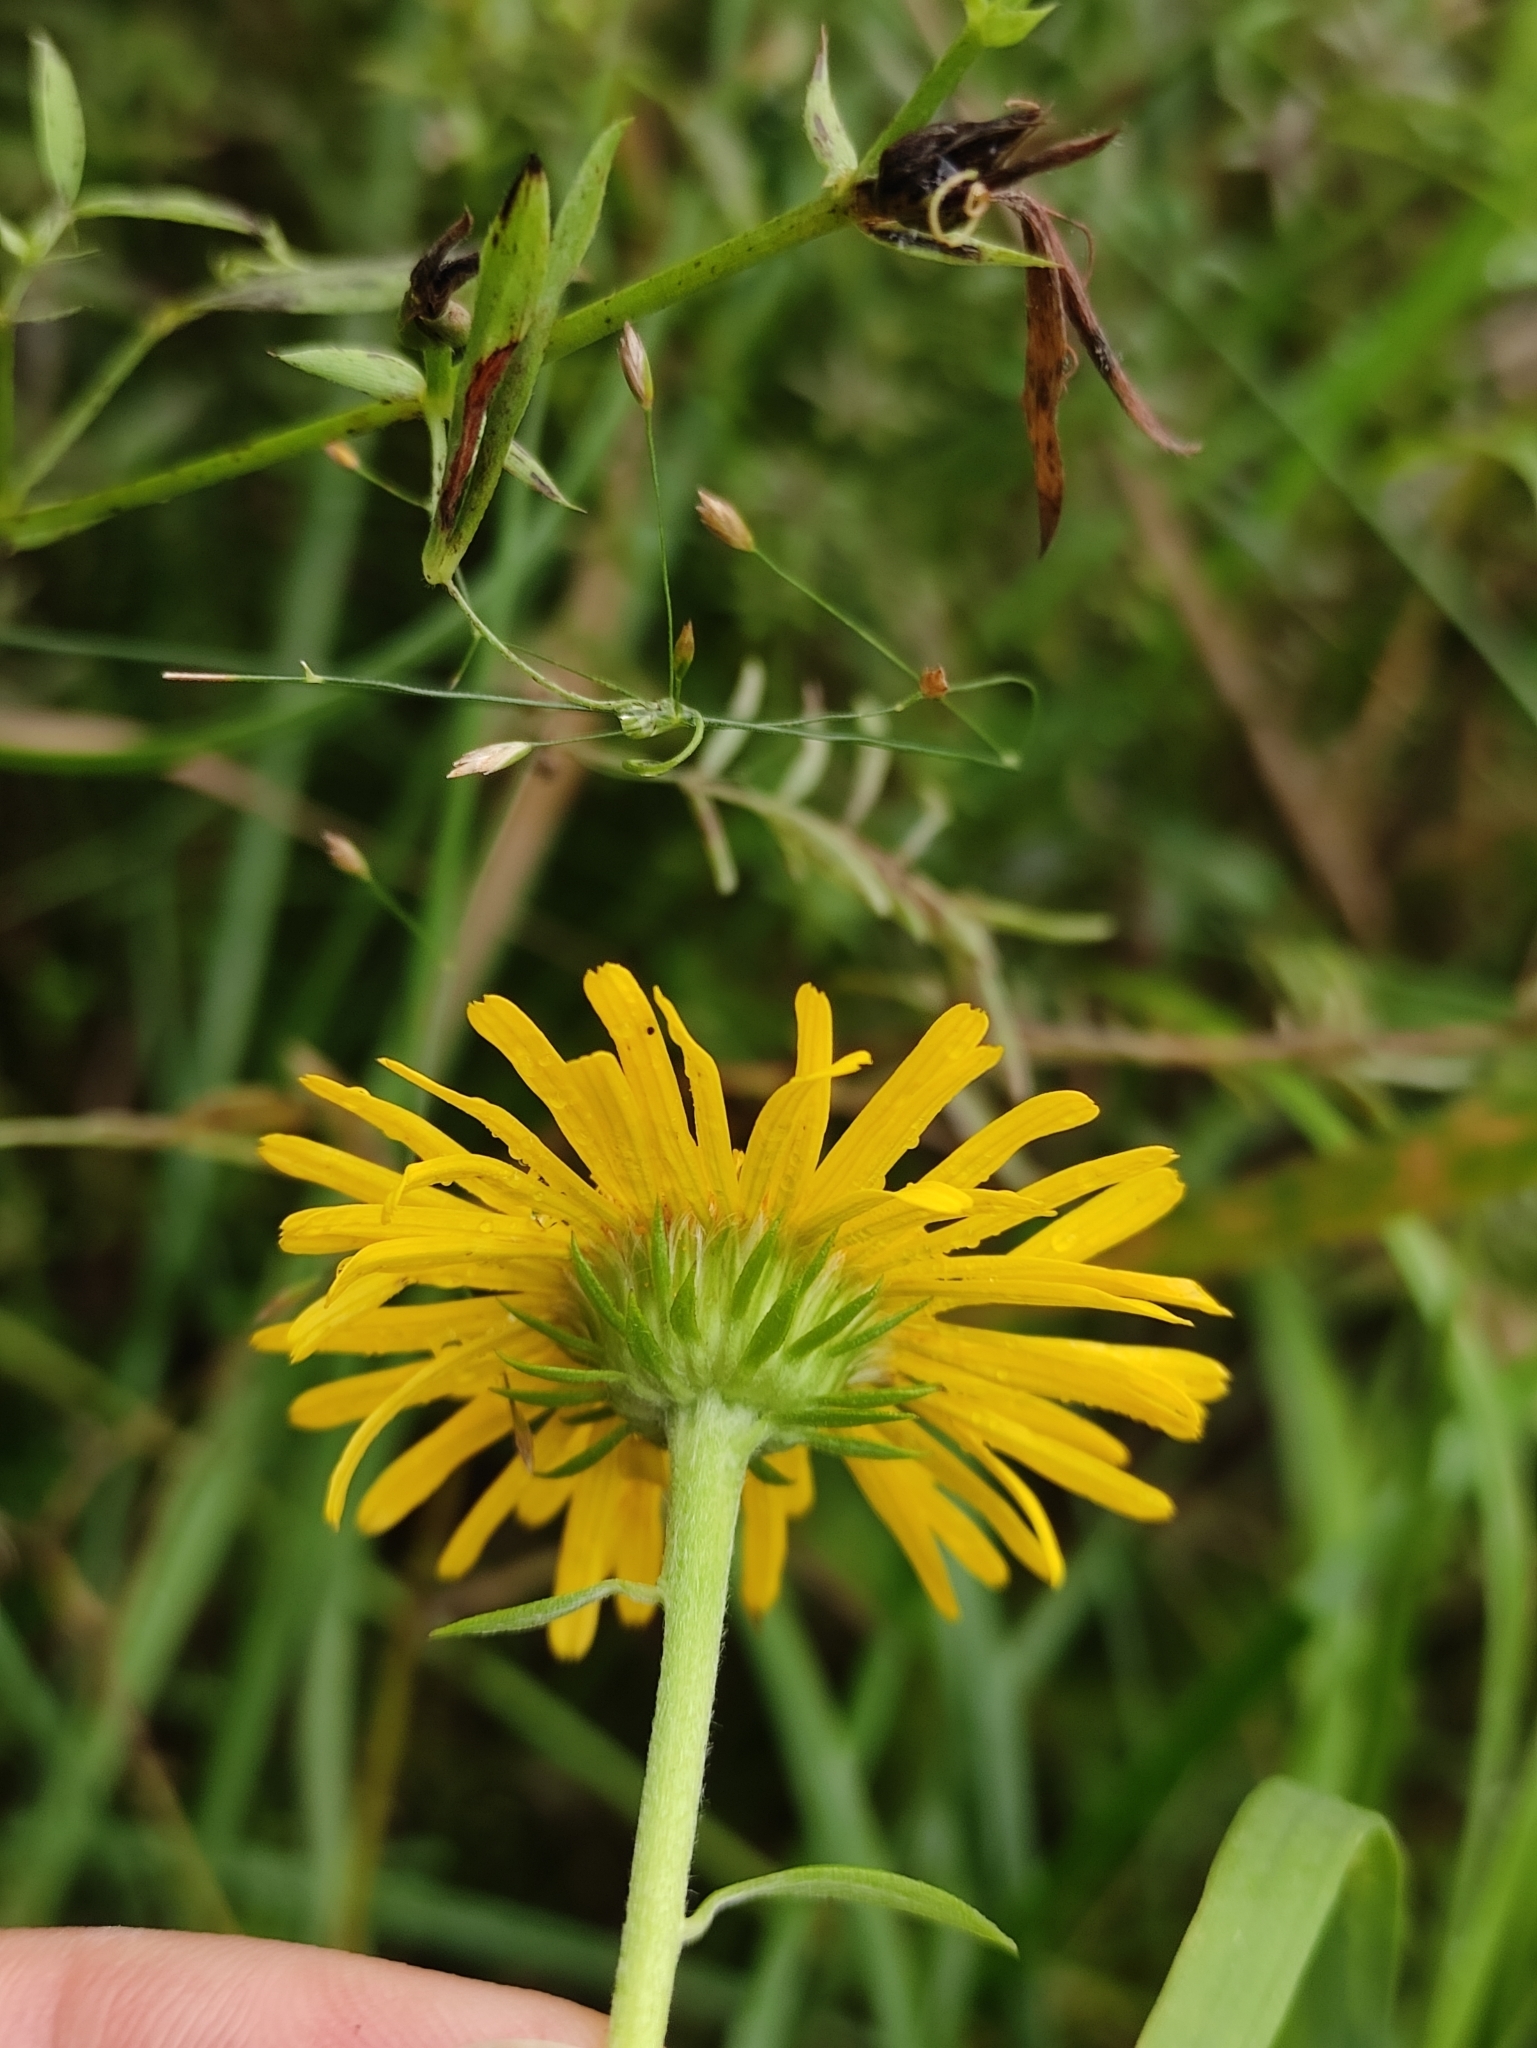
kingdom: Plantae
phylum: Tracheophyta
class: Magnoliopsida
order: Asterales
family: Asteraceae
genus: Pentanema
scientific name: Pentanema britannicum
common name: British elecampane
